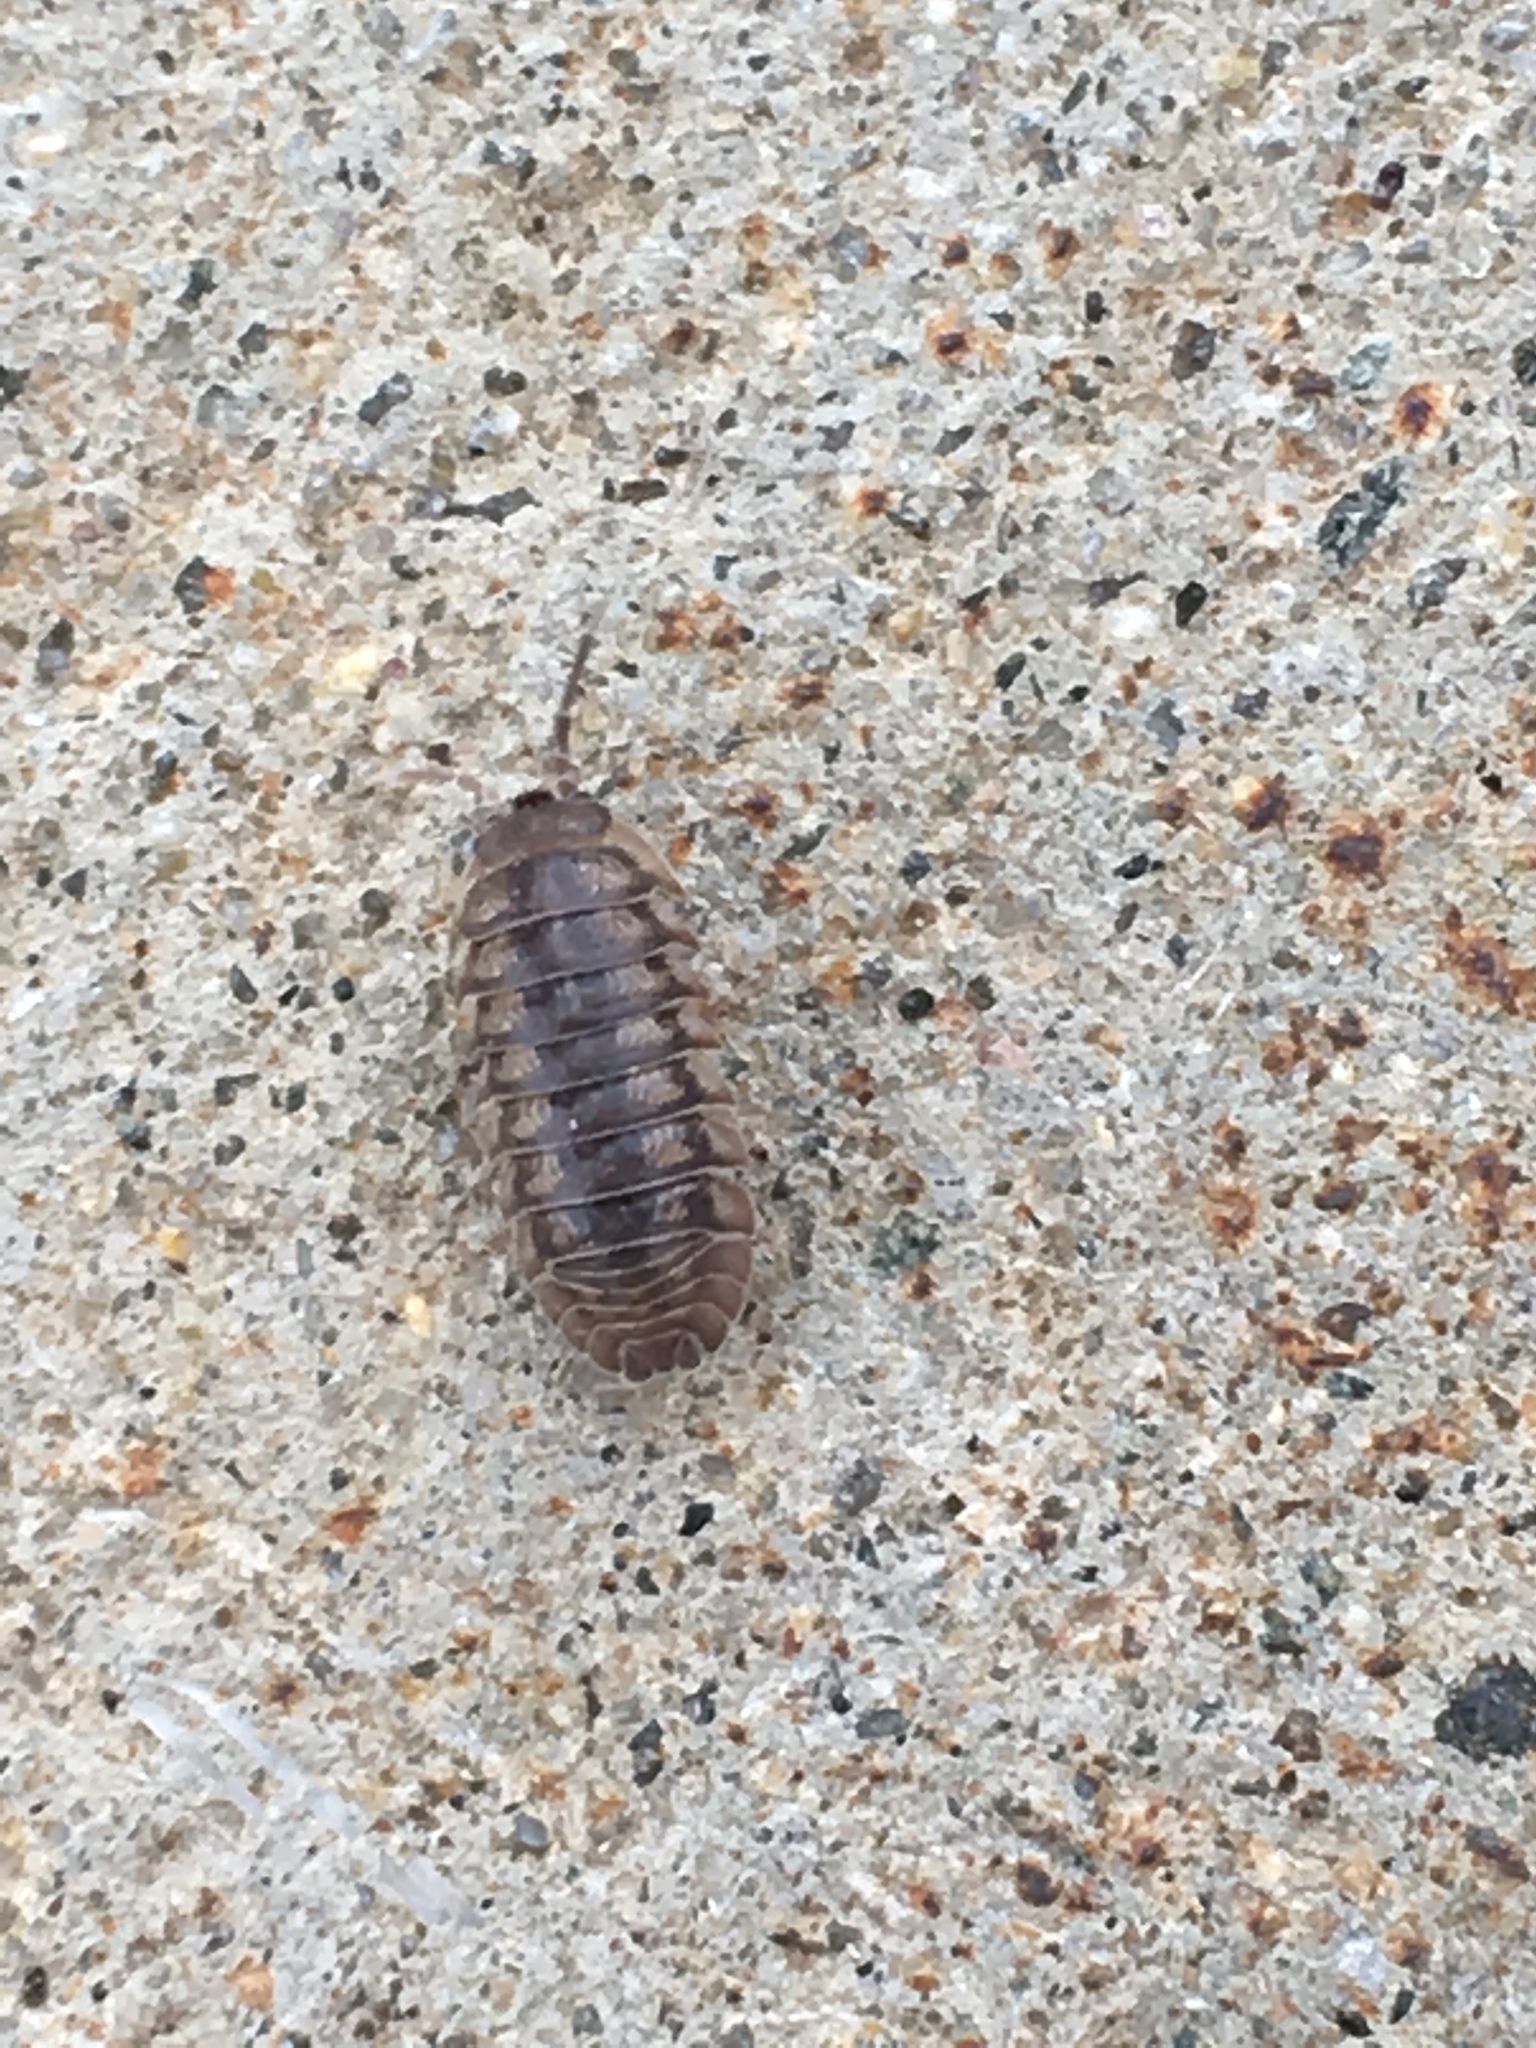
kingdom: Animalia
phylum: Arthropoda
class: Malacostraca
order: Isopoda
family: Armadillidiidae
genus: Armadillidium
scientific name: Armadillidium nasatum
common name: Isopod
